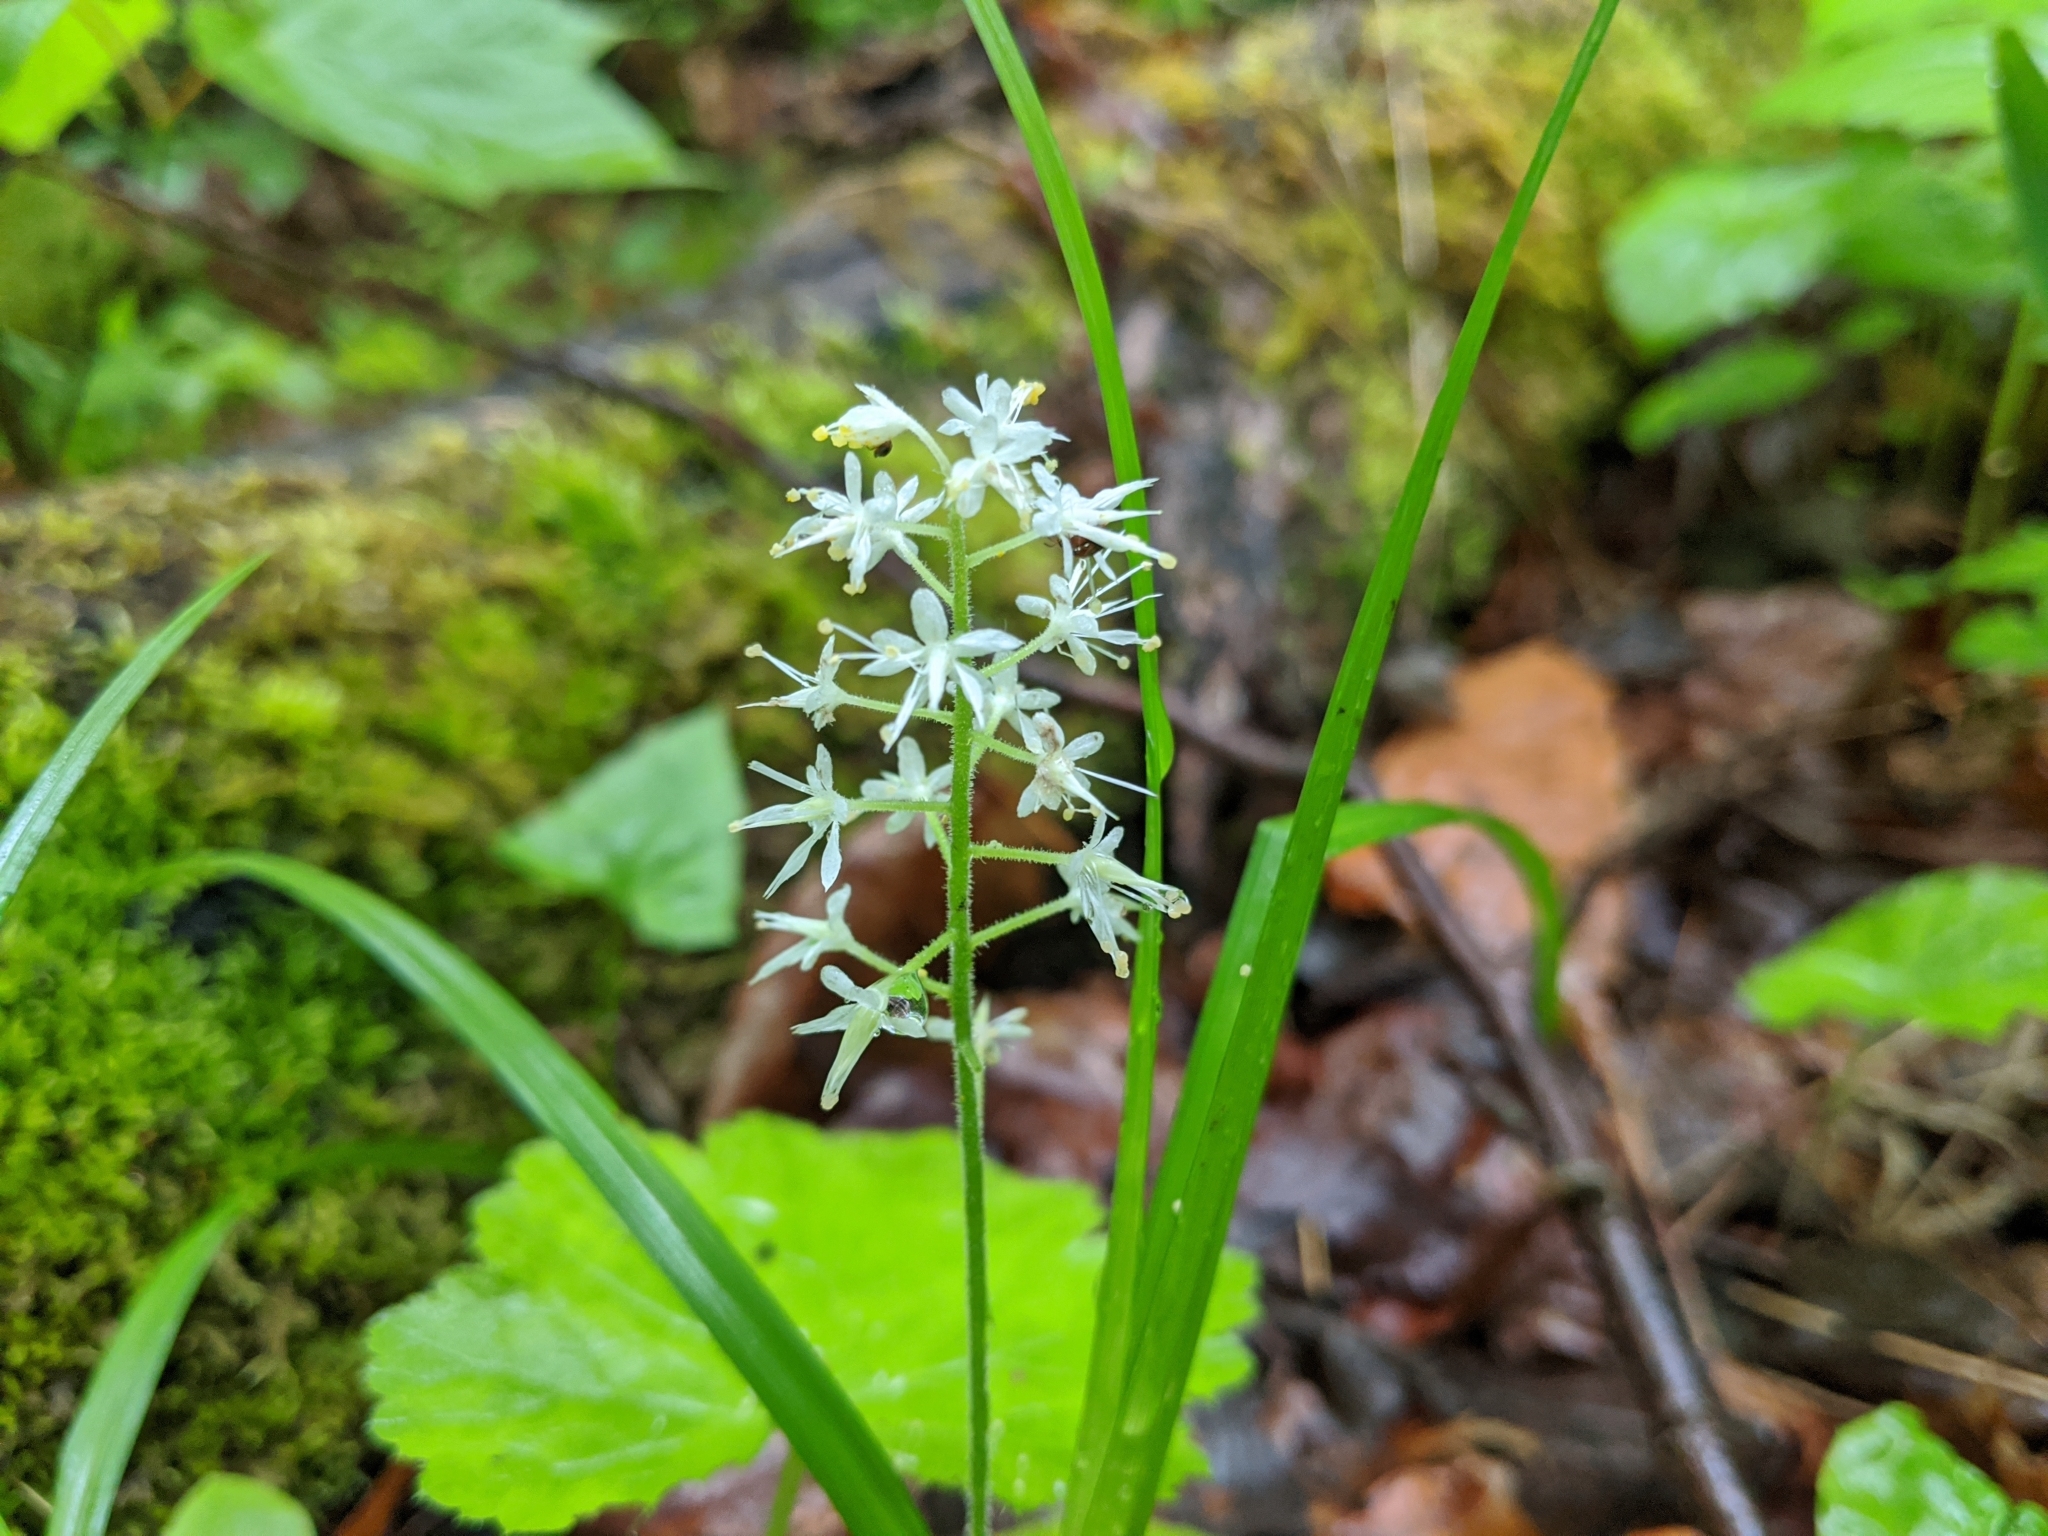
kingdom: Plantae
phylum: Tracheophyta
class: Magnoliopsida
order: Saxifragales
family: Saxifragaceae
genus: Tiarella
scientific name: Tiarella stolonifera
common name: Stoloniferous foamflower
